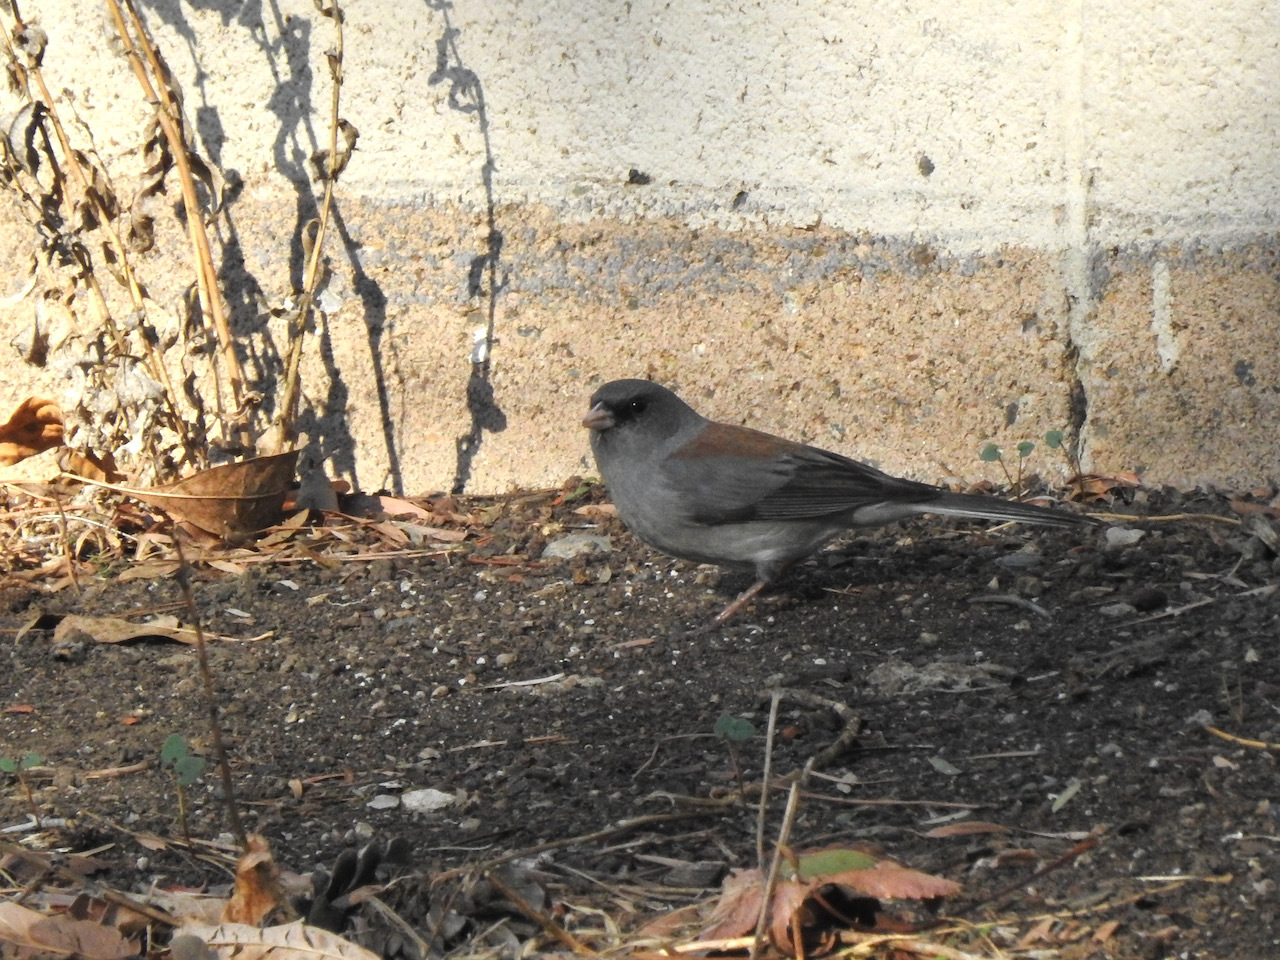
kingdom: Animalia
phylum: Chordata
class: Aves
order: Passeriformes
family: Passerellidae
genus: Junco
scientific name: Junco hyemalis
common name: Dark-eyed junco
